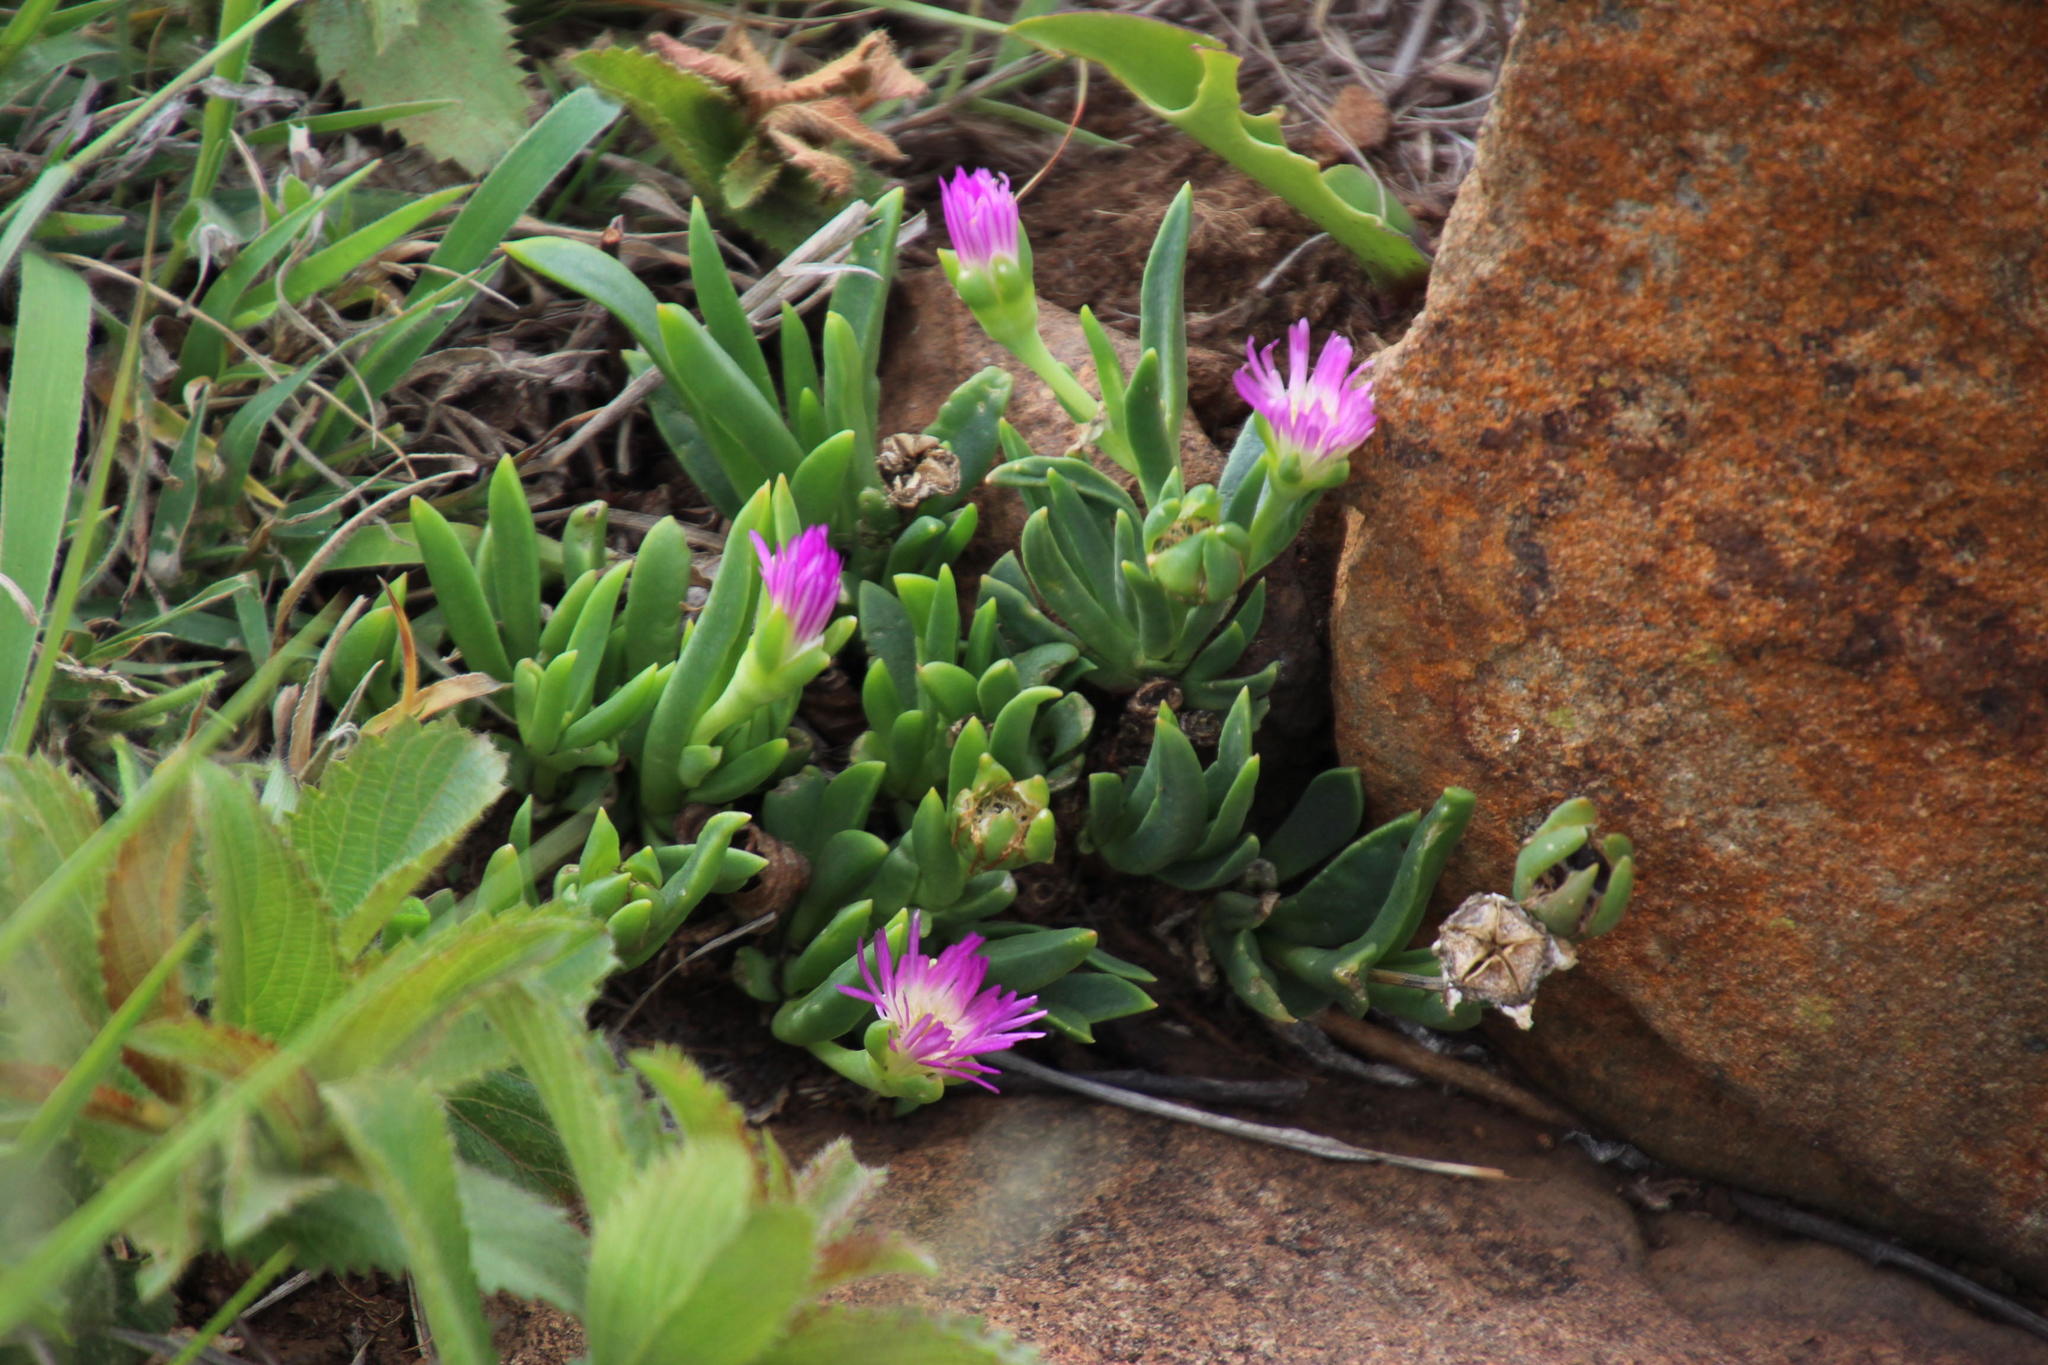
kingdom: Plantae
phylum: Tracheophyta
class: Magnoliopsida
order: Caryophyllales
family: Aizoaceae
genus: Delosperma
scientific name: Delosperma carolinense
